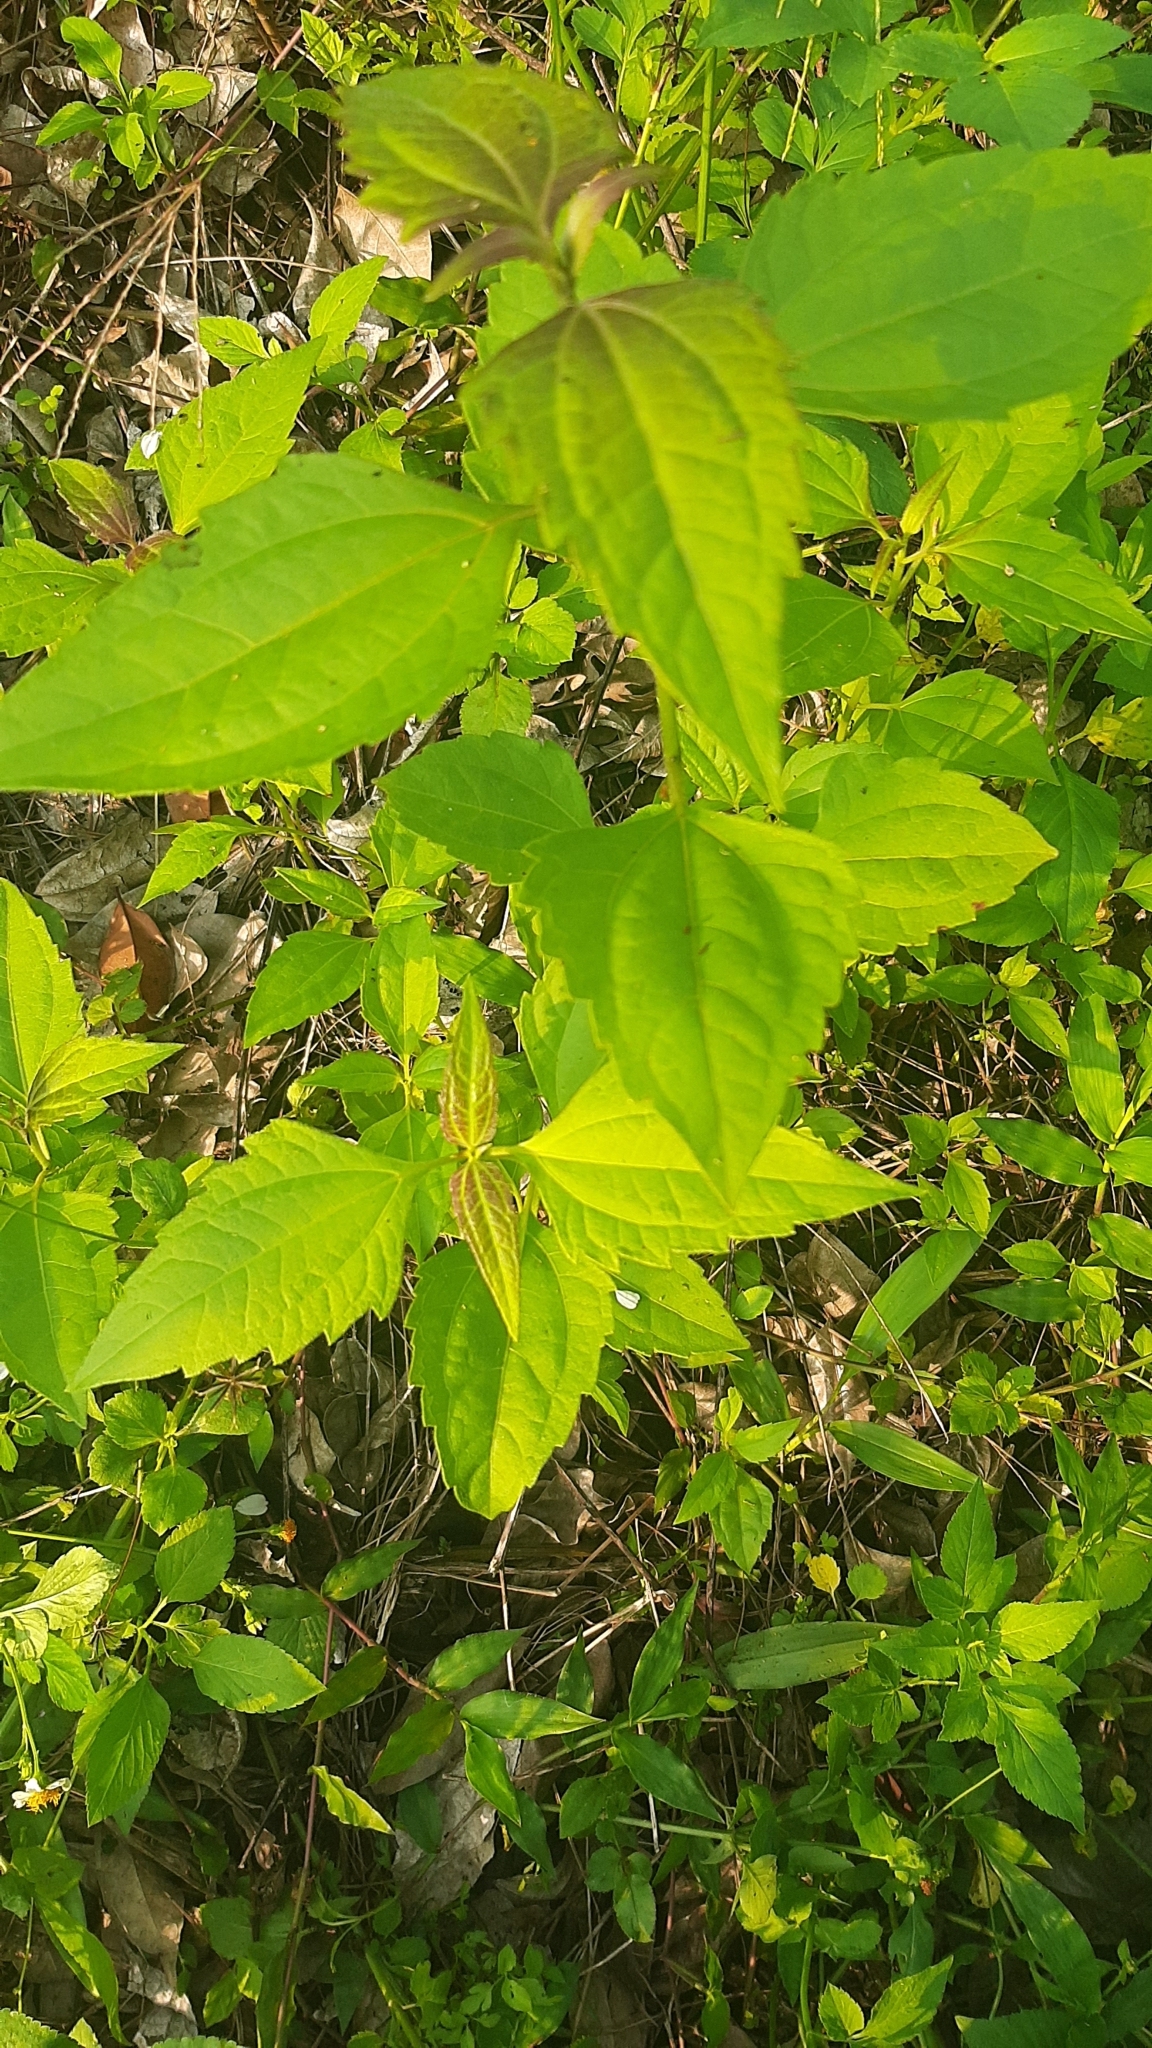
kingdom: Plantae
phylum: Tracheophyta
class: Magnoliopsida
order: Asterales
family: Asteraceae
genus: Chromolaena
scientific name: Chromolaena odorata
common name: Siamweed
